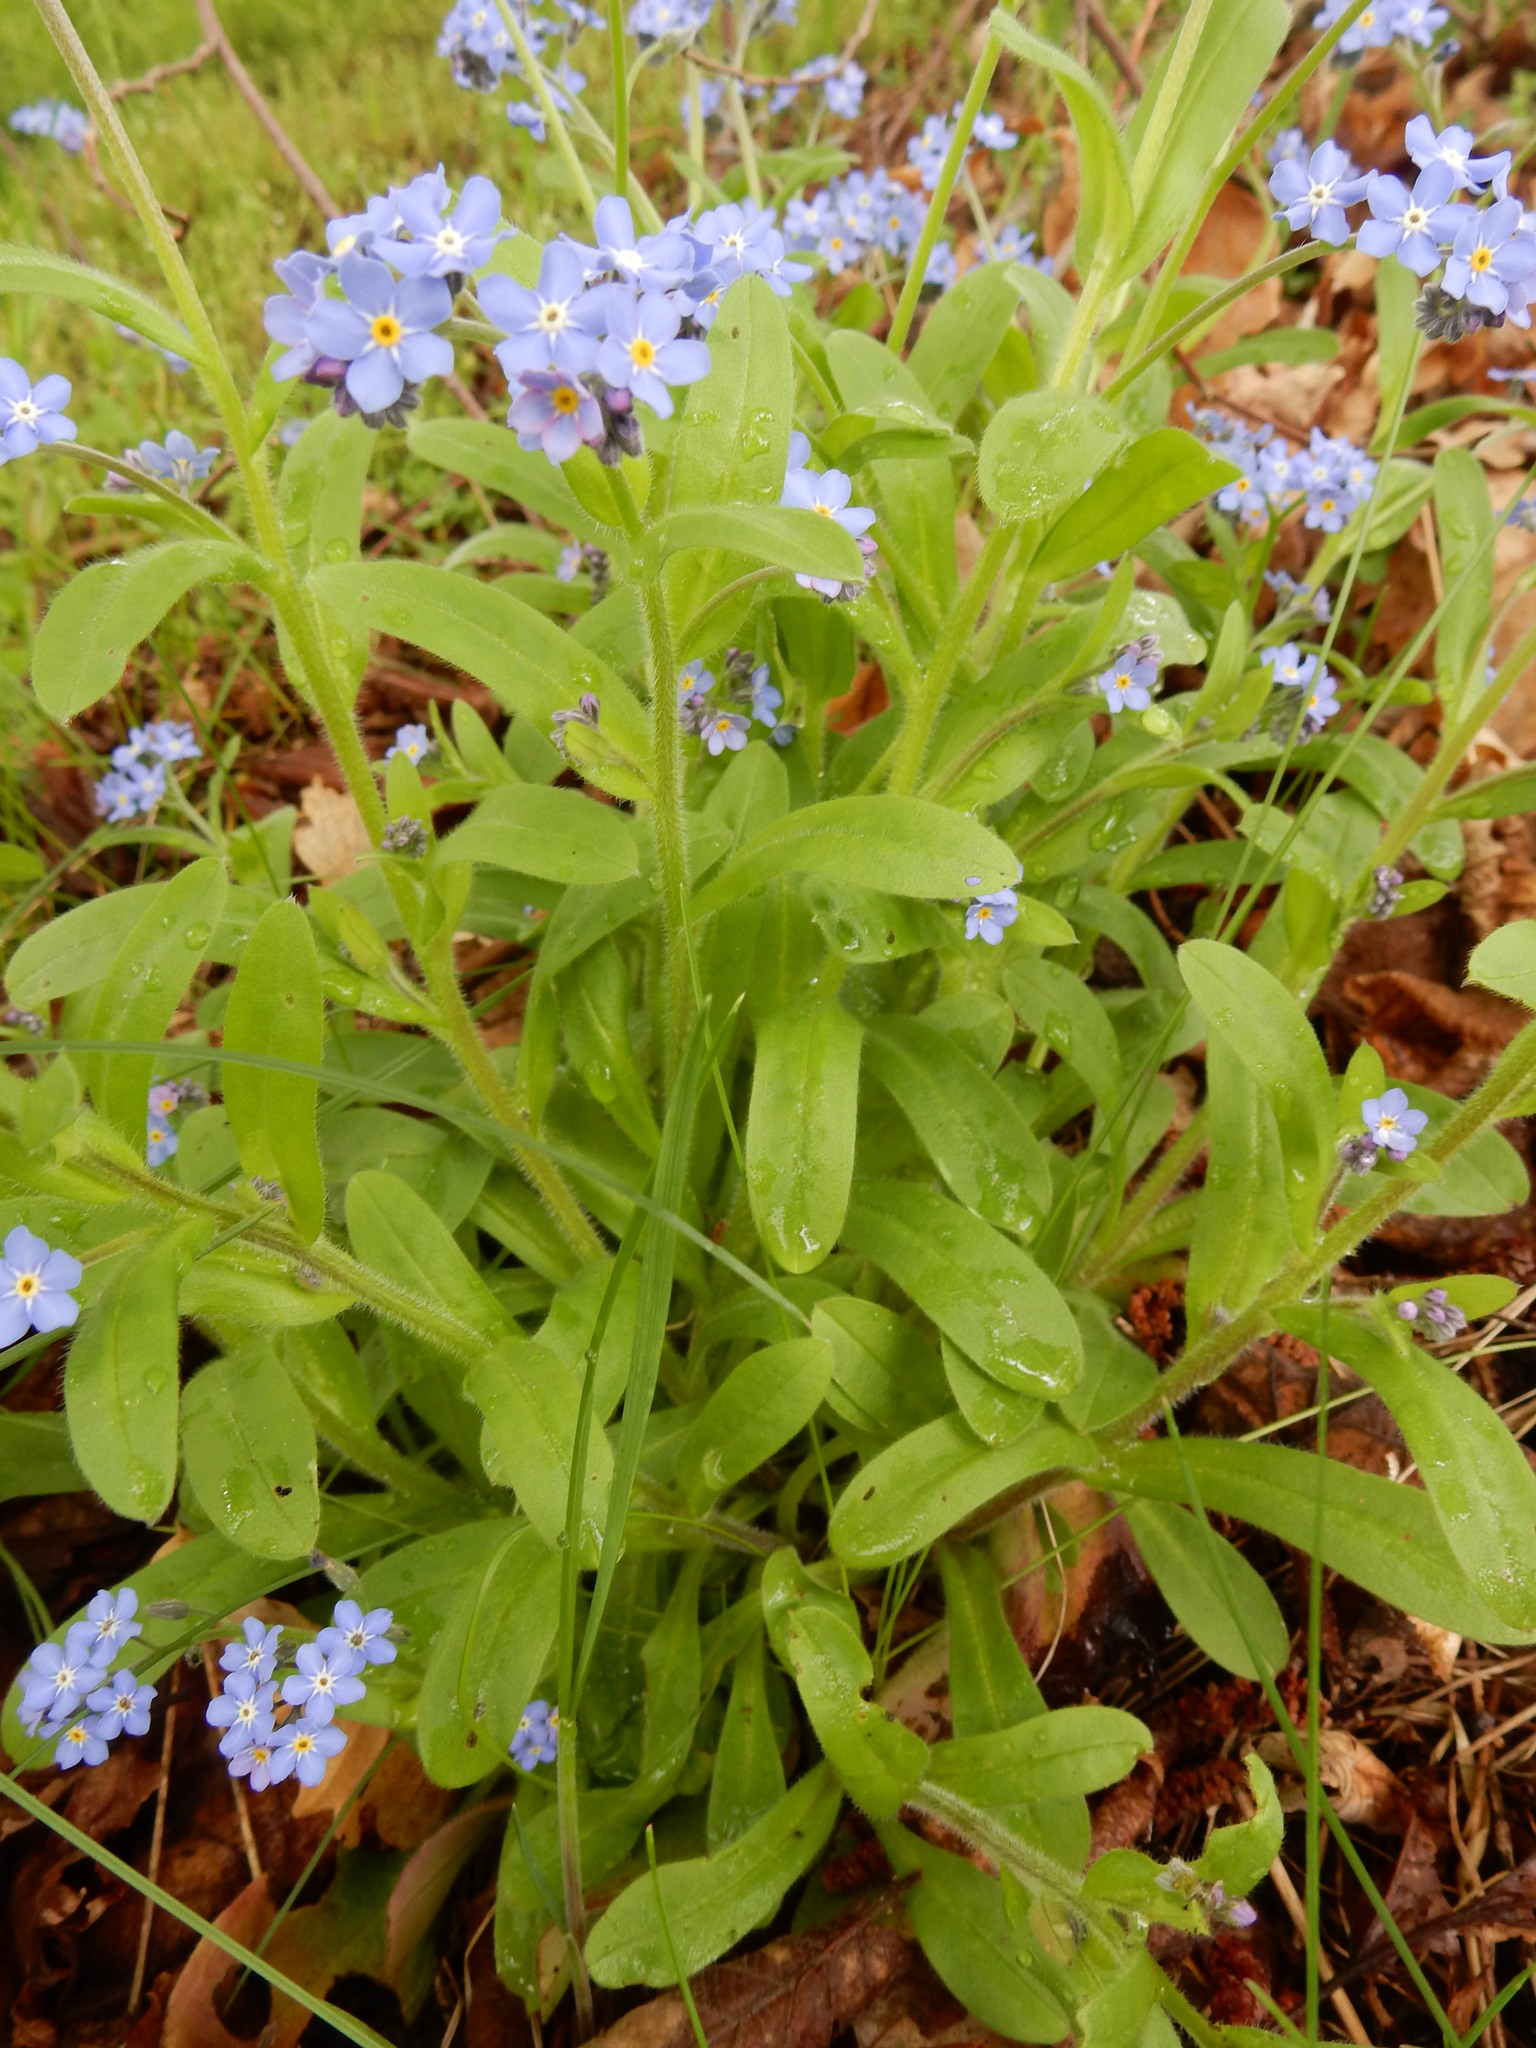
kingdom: Plantae
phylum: Tracheophyta
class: Magnoliopsida
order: Boraginales
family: Boraginaceae
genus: Myosotis
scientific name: Myosotis sylvatica
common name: Wood forget-me-not
